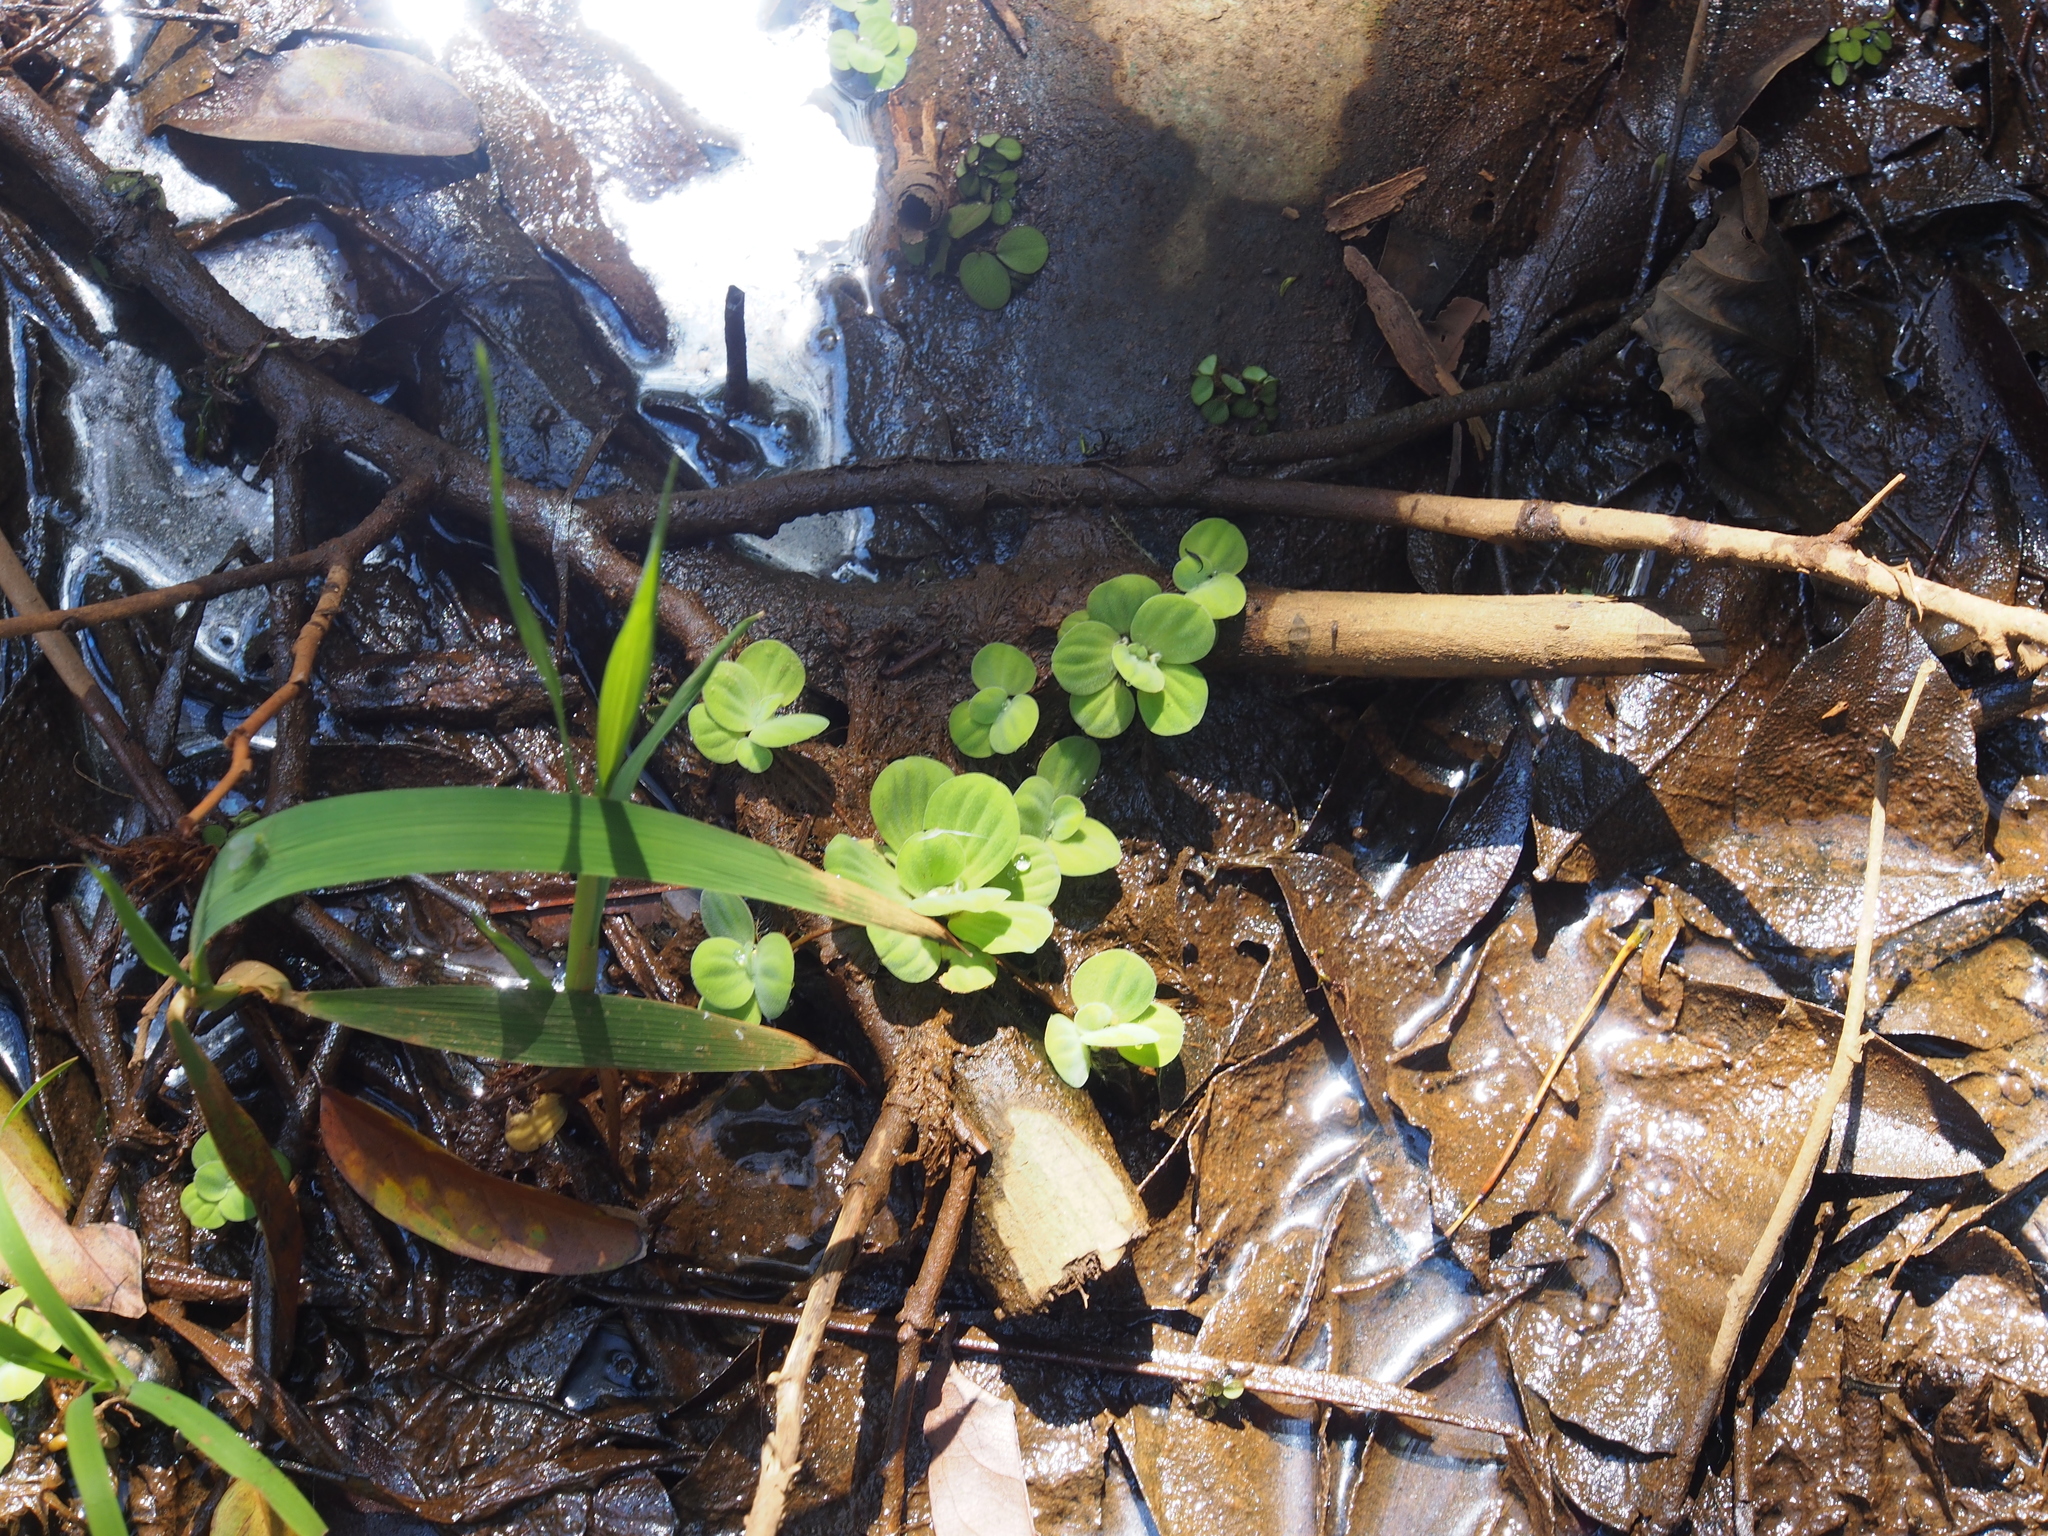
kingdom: Plantae
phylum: Tracheophyta
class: Liliopsida
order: Alismatales
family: Araceae
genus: Pistia
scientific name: Pistia stratiotes
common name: Water lettuce
